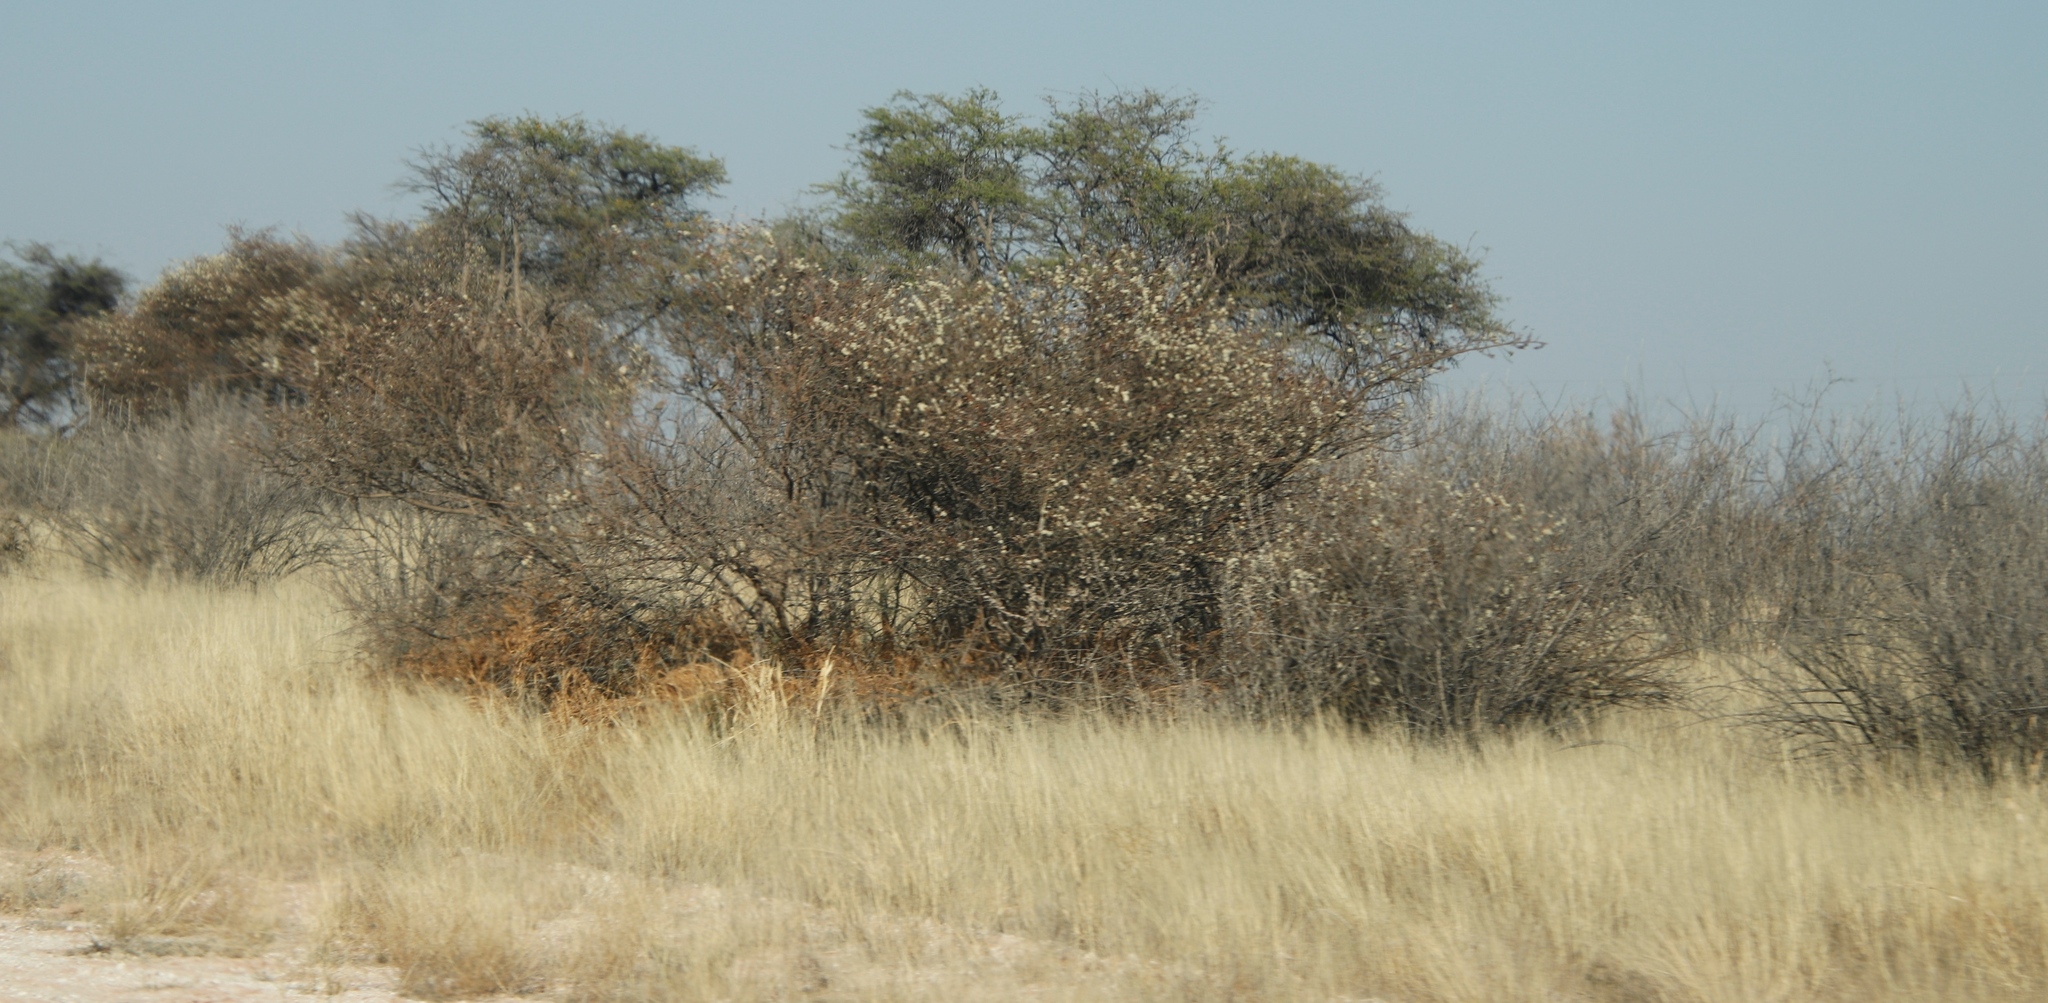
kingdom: Plantae
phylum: Tracheophyta
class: Magnoliopsida
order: Fabales
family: Fabaceae
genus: Senegalia
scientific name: Senegalia mellifera
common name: Hookthorn
